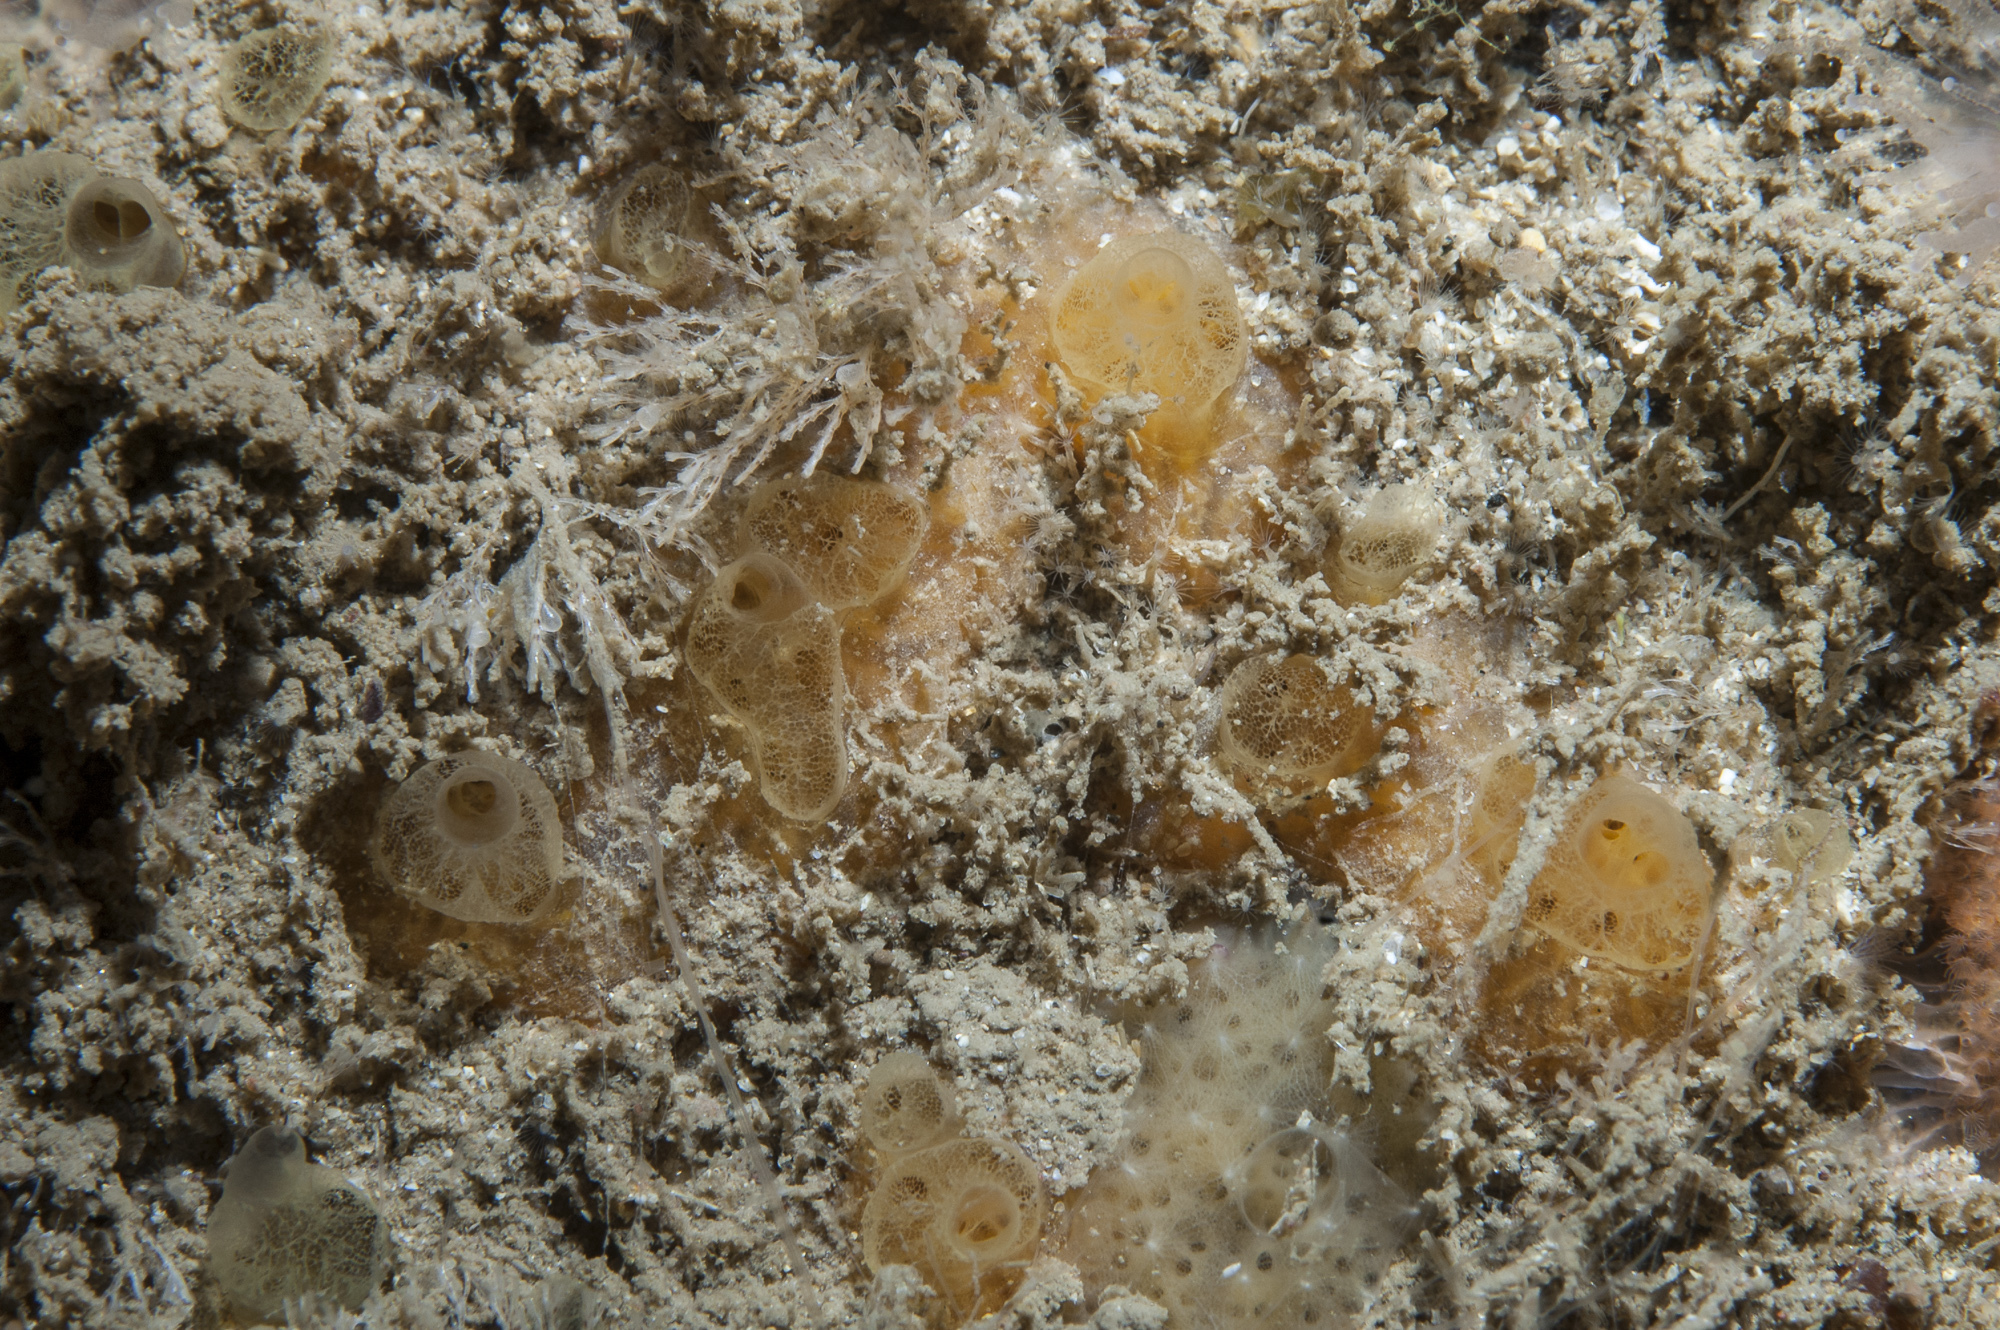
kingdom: Animalia
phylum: Porifera
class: Demospongiae
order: Poecilosclerida
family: Hymedesmiidae
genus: Hymedesmia
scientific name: Hymedesmia rathlinia
